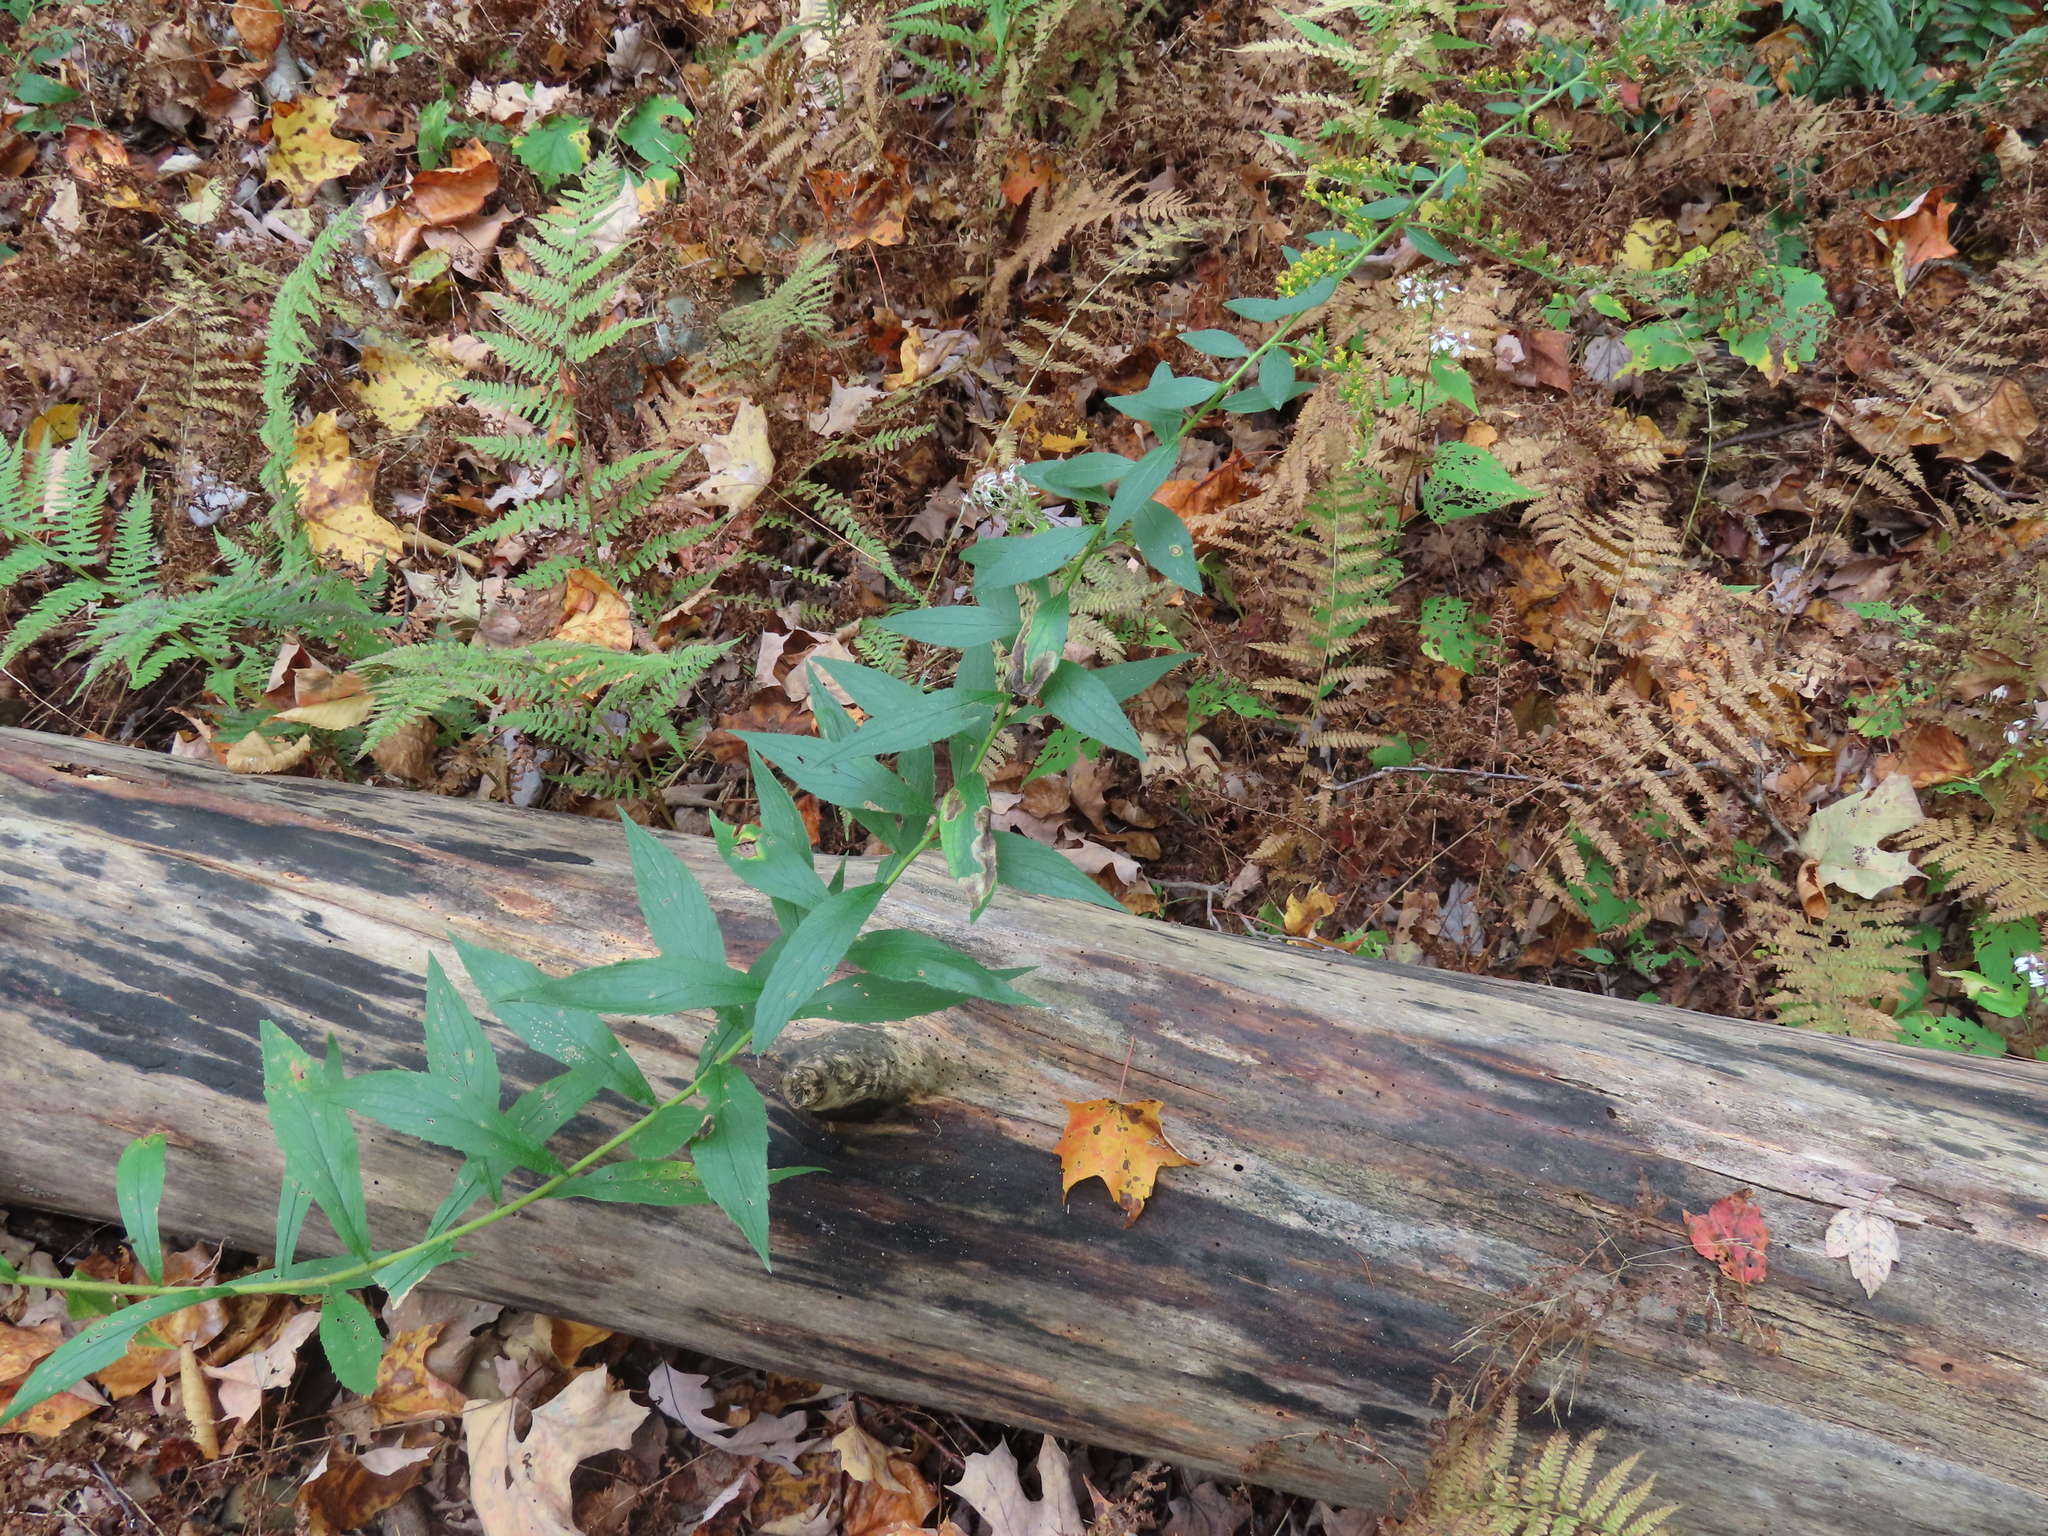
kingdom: Animalia
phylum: Arthropoda
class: Insecta
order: Diptera
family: Agromyzidae
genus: Nemorimyza
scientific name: Nemorimyza posticata
